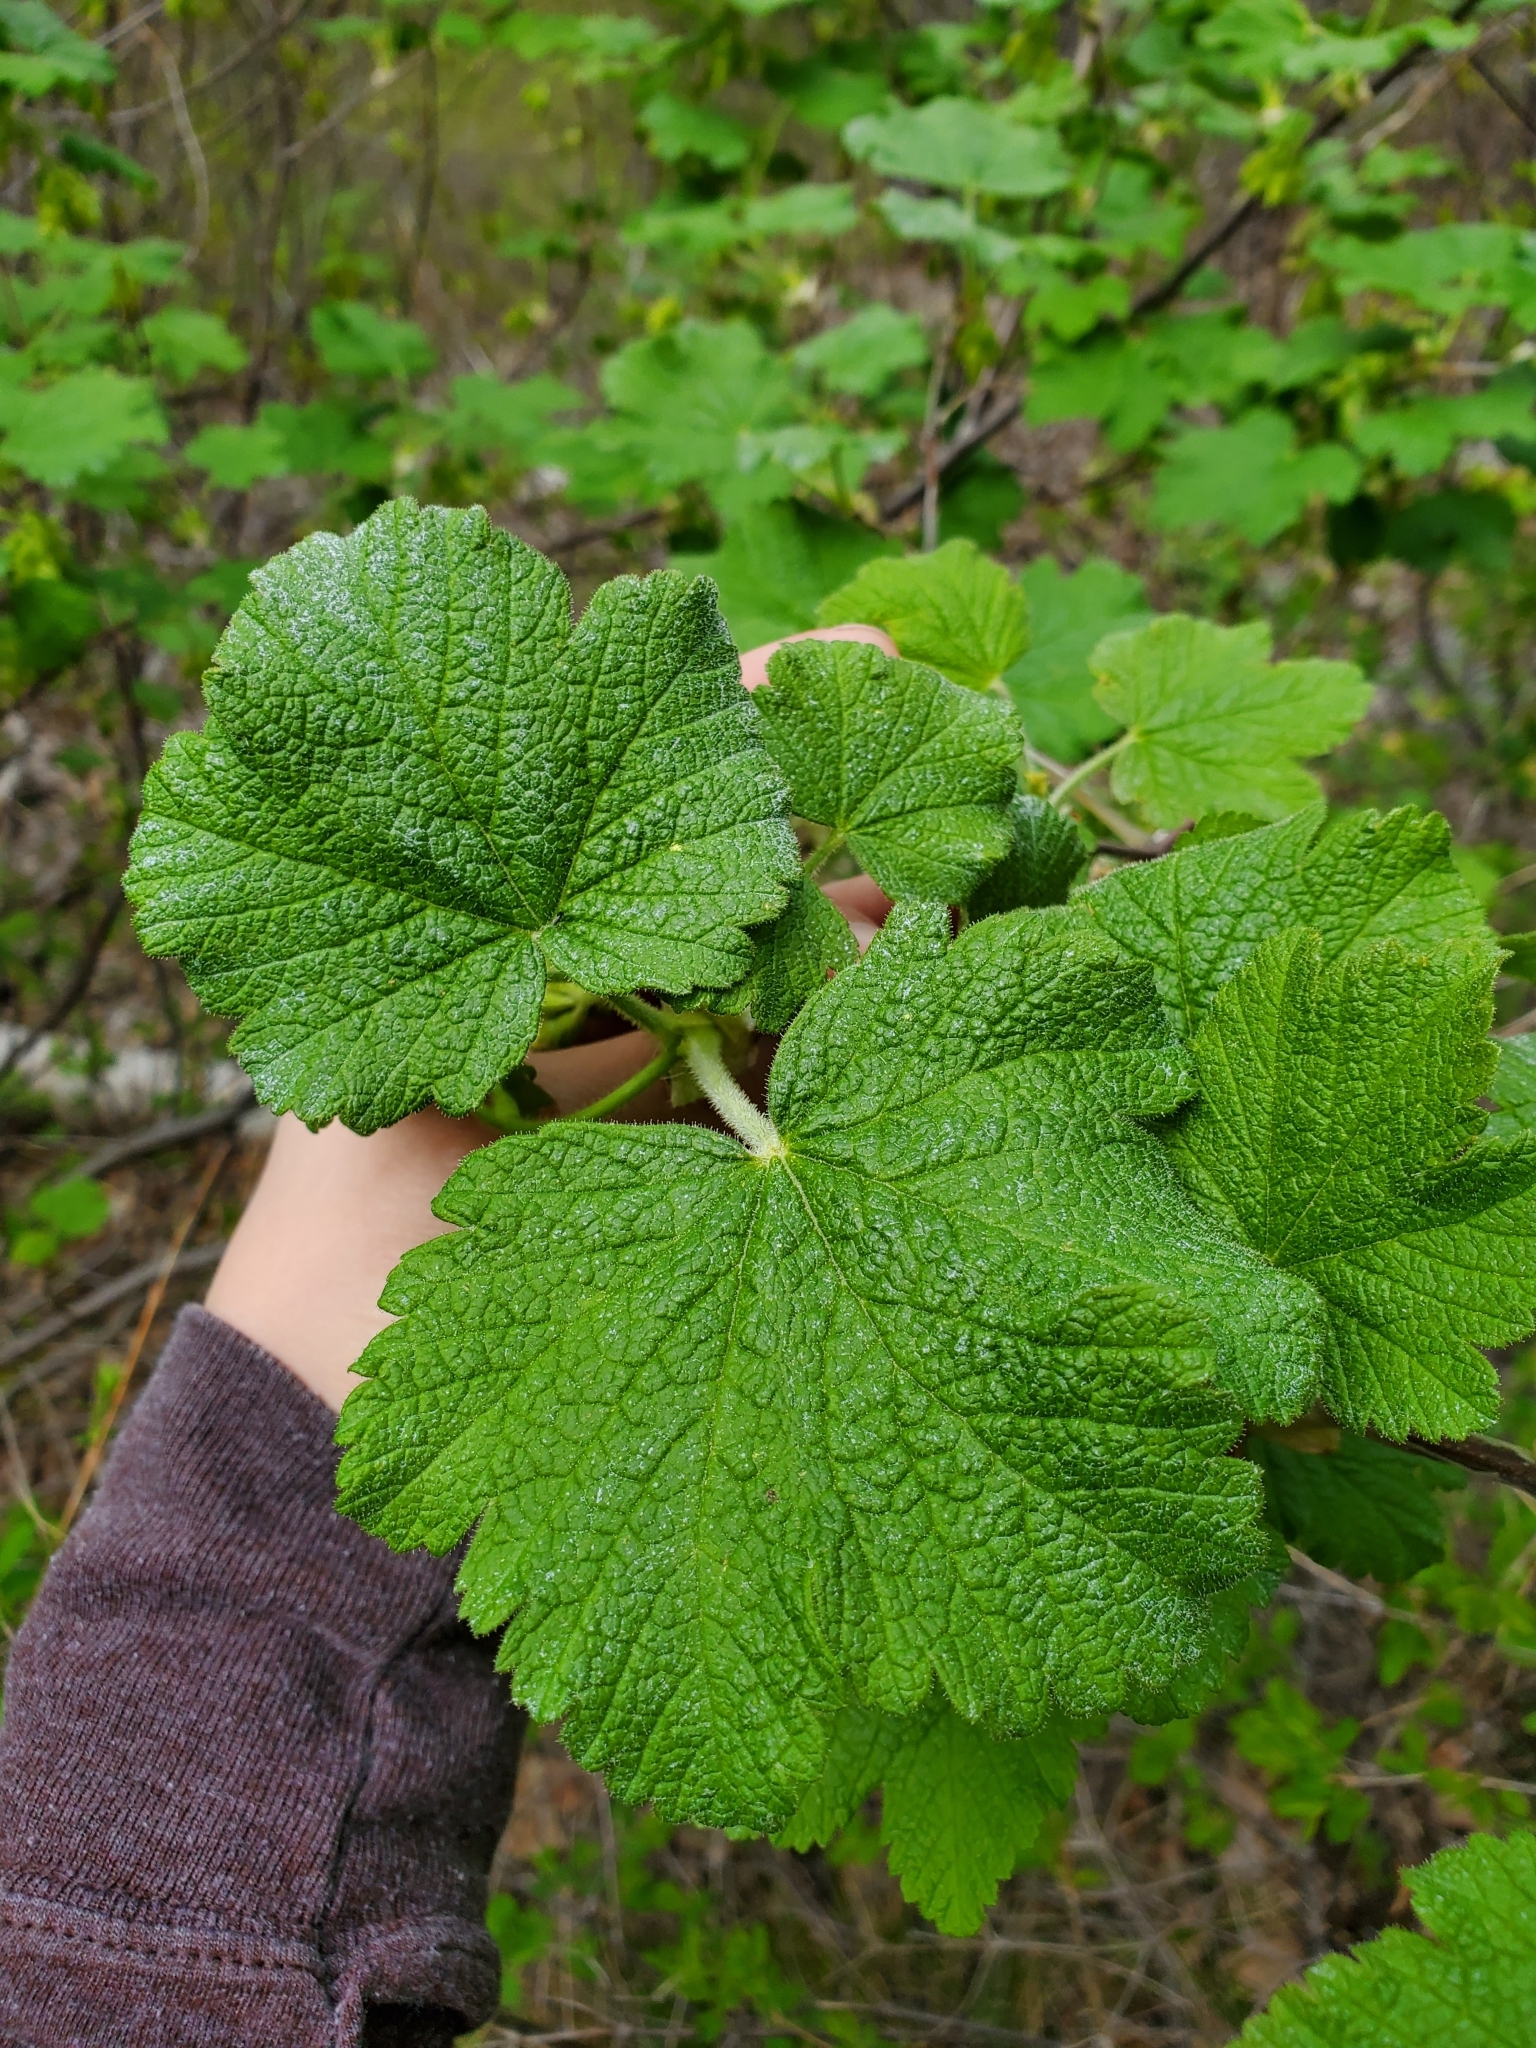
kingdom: Plantae
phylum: Tracheophyta
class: Magnoliopsida
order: Saxifragales
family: Grossulariaceae
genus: Ribes
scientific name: Ribes viscosissimum
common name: Sticky currant
